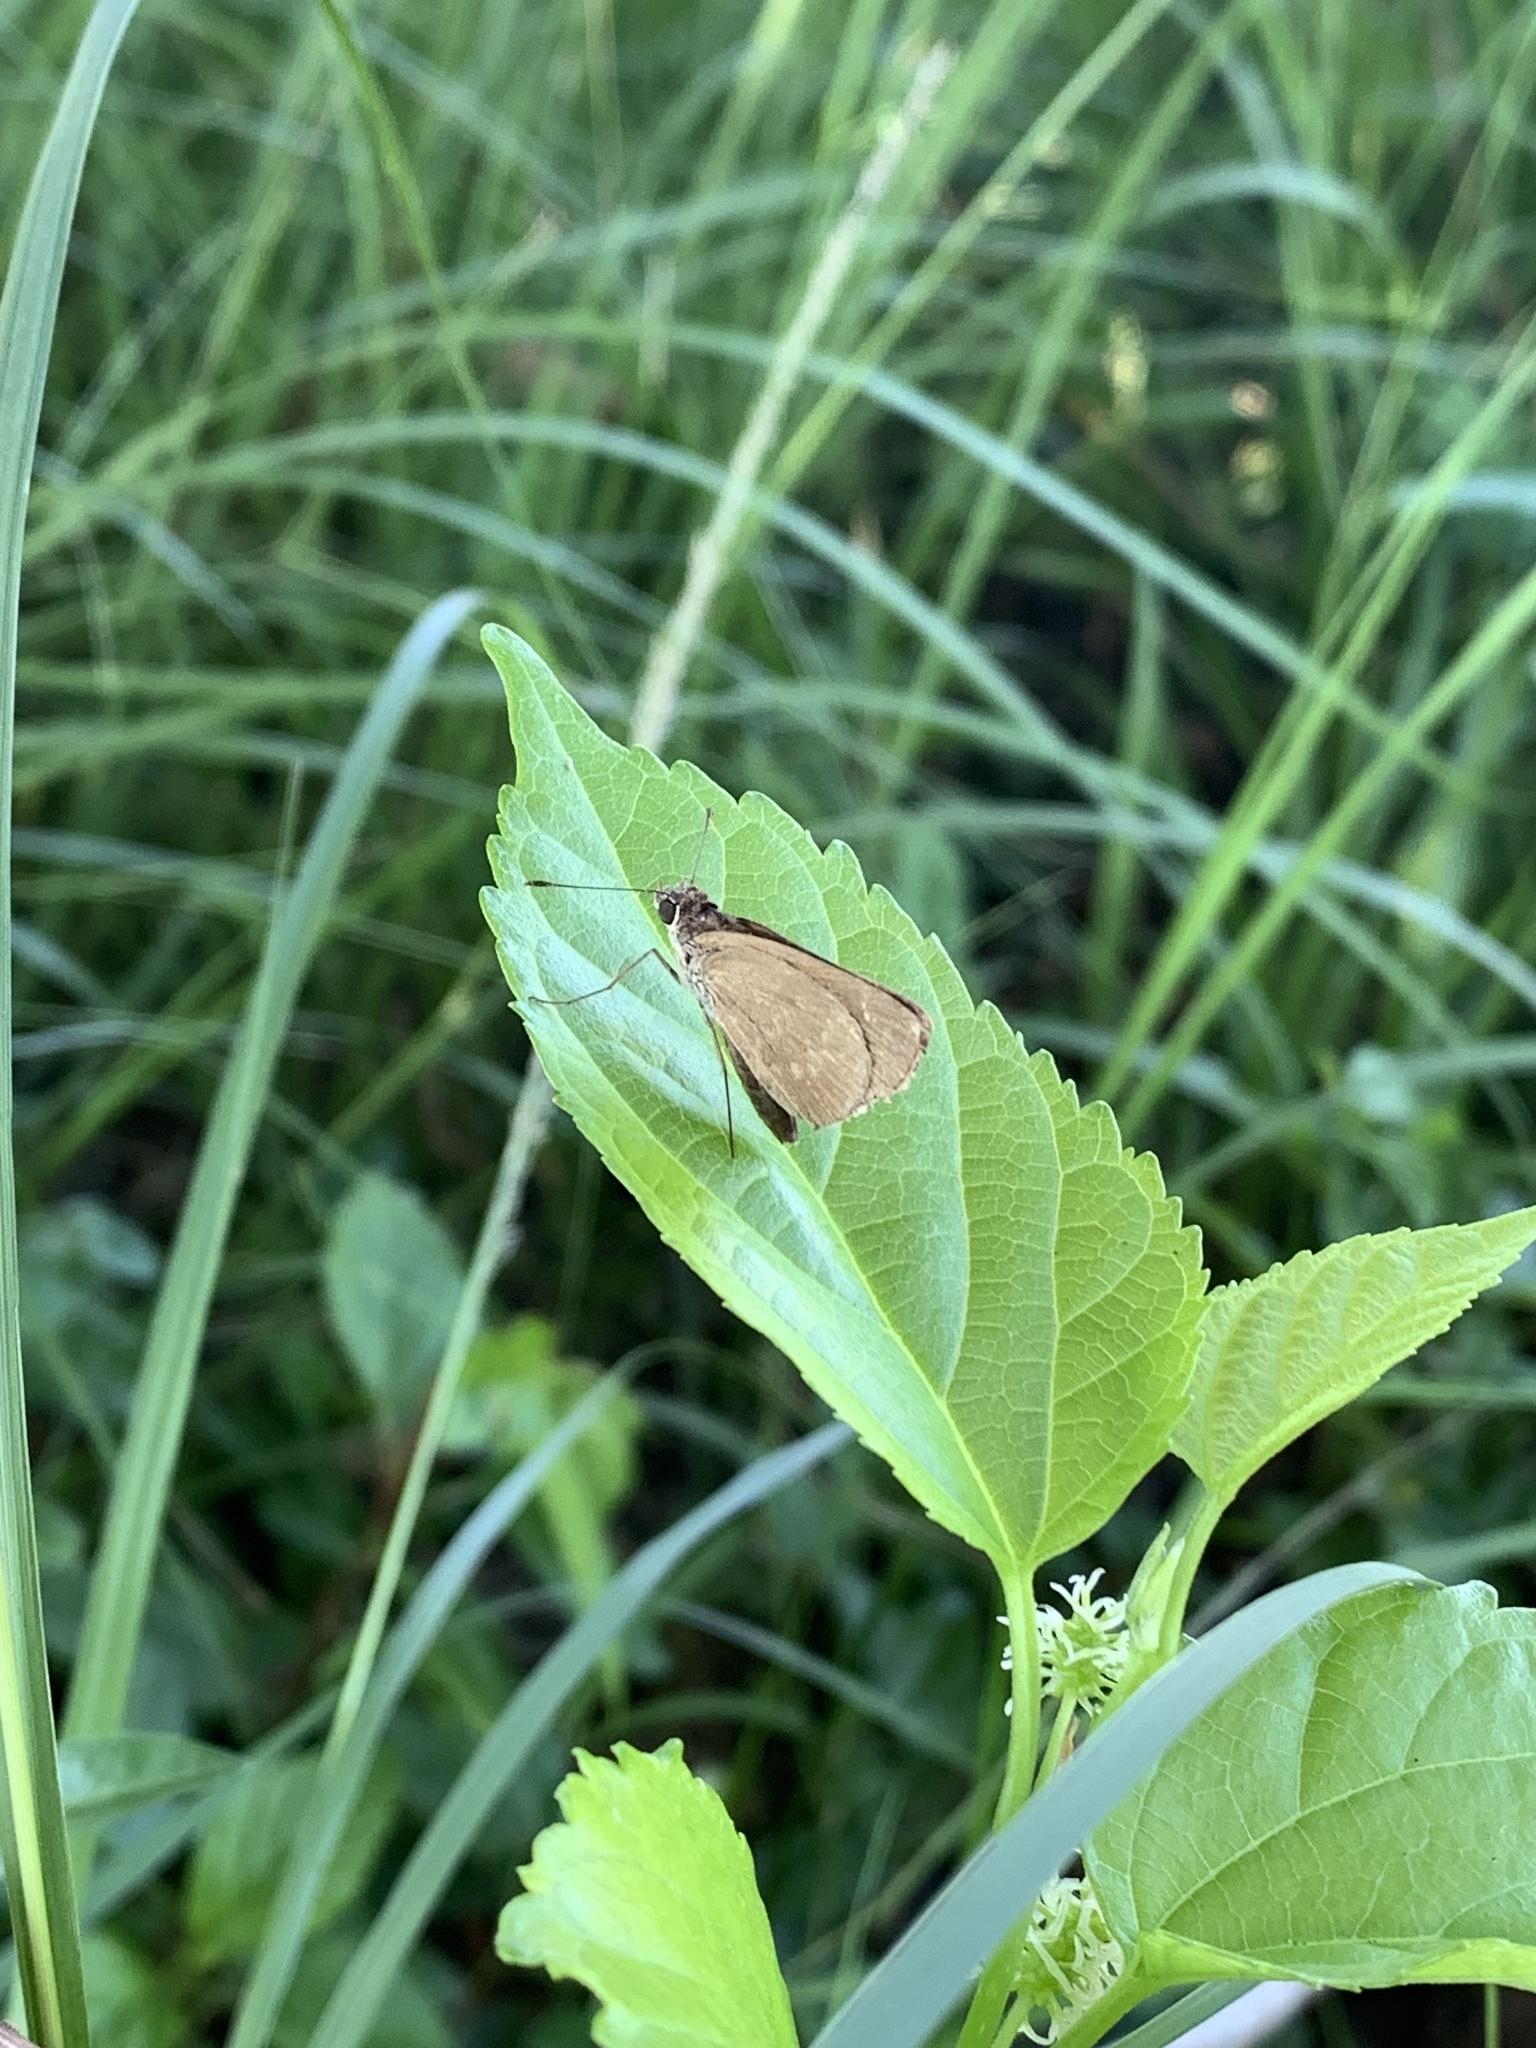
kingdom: Animalia
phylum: Arthropoda
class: Insecta
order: Lepidoptera
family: Hesperiidae
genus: Cymaenes
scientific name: Cymaenes tripunctus
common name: Dingy dotted skipper
